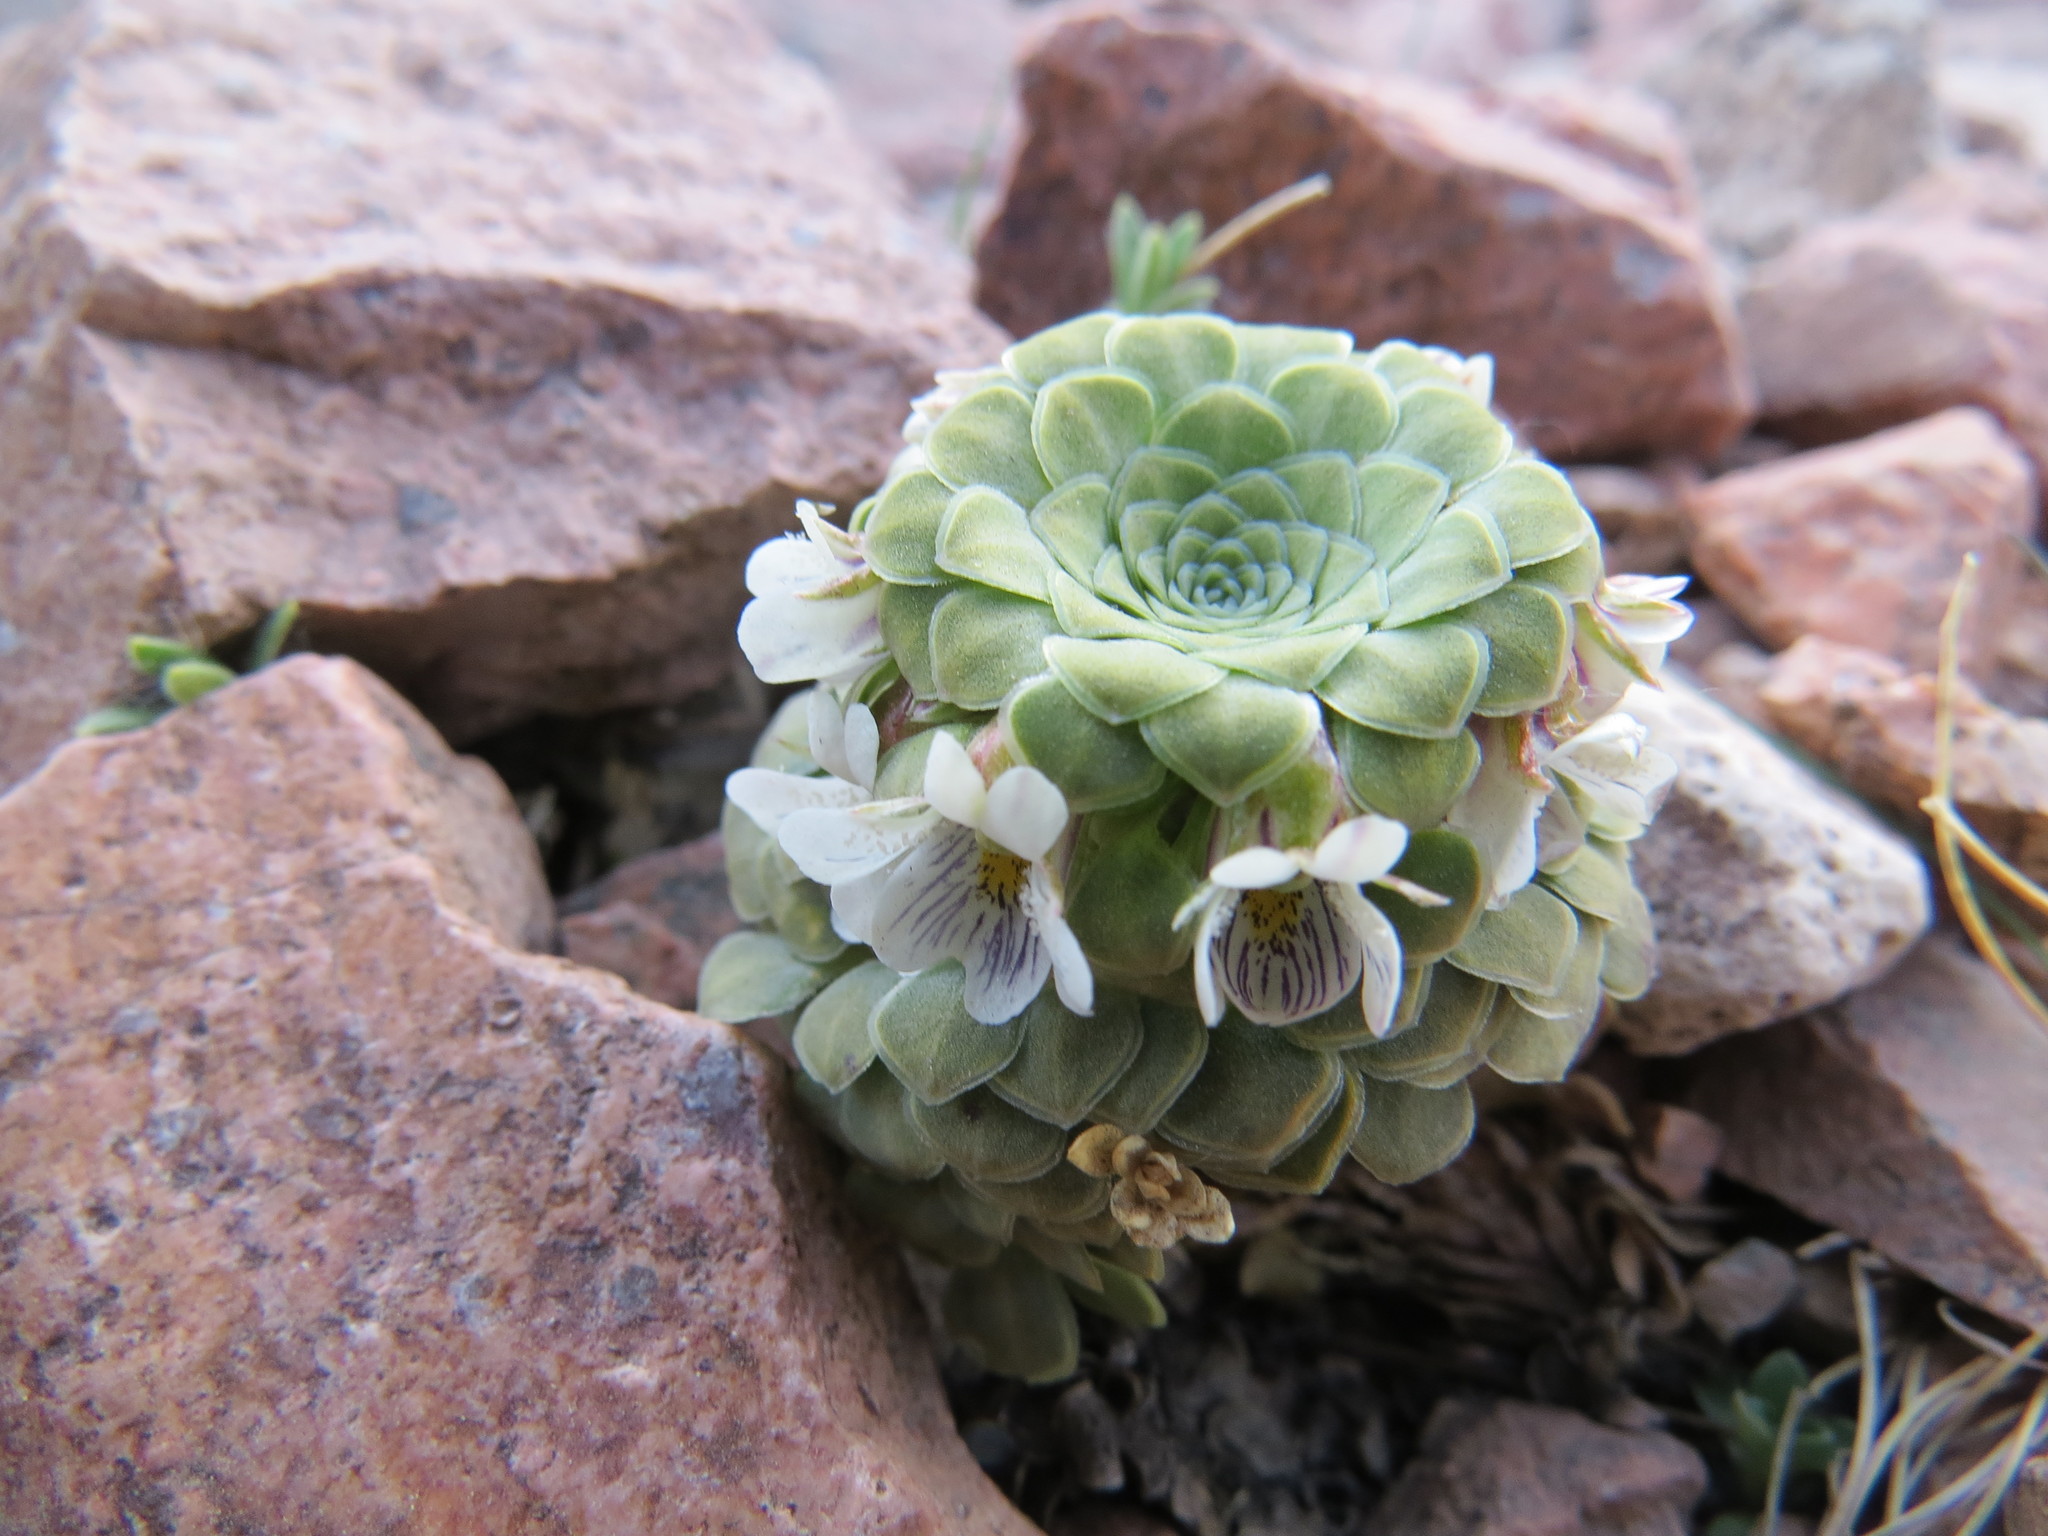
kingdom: Plantae
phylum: Tracheophyta
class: Magnoliopsida
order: Malpighiales
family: Violaceae
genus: Viola
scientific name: Viola zwienenii
